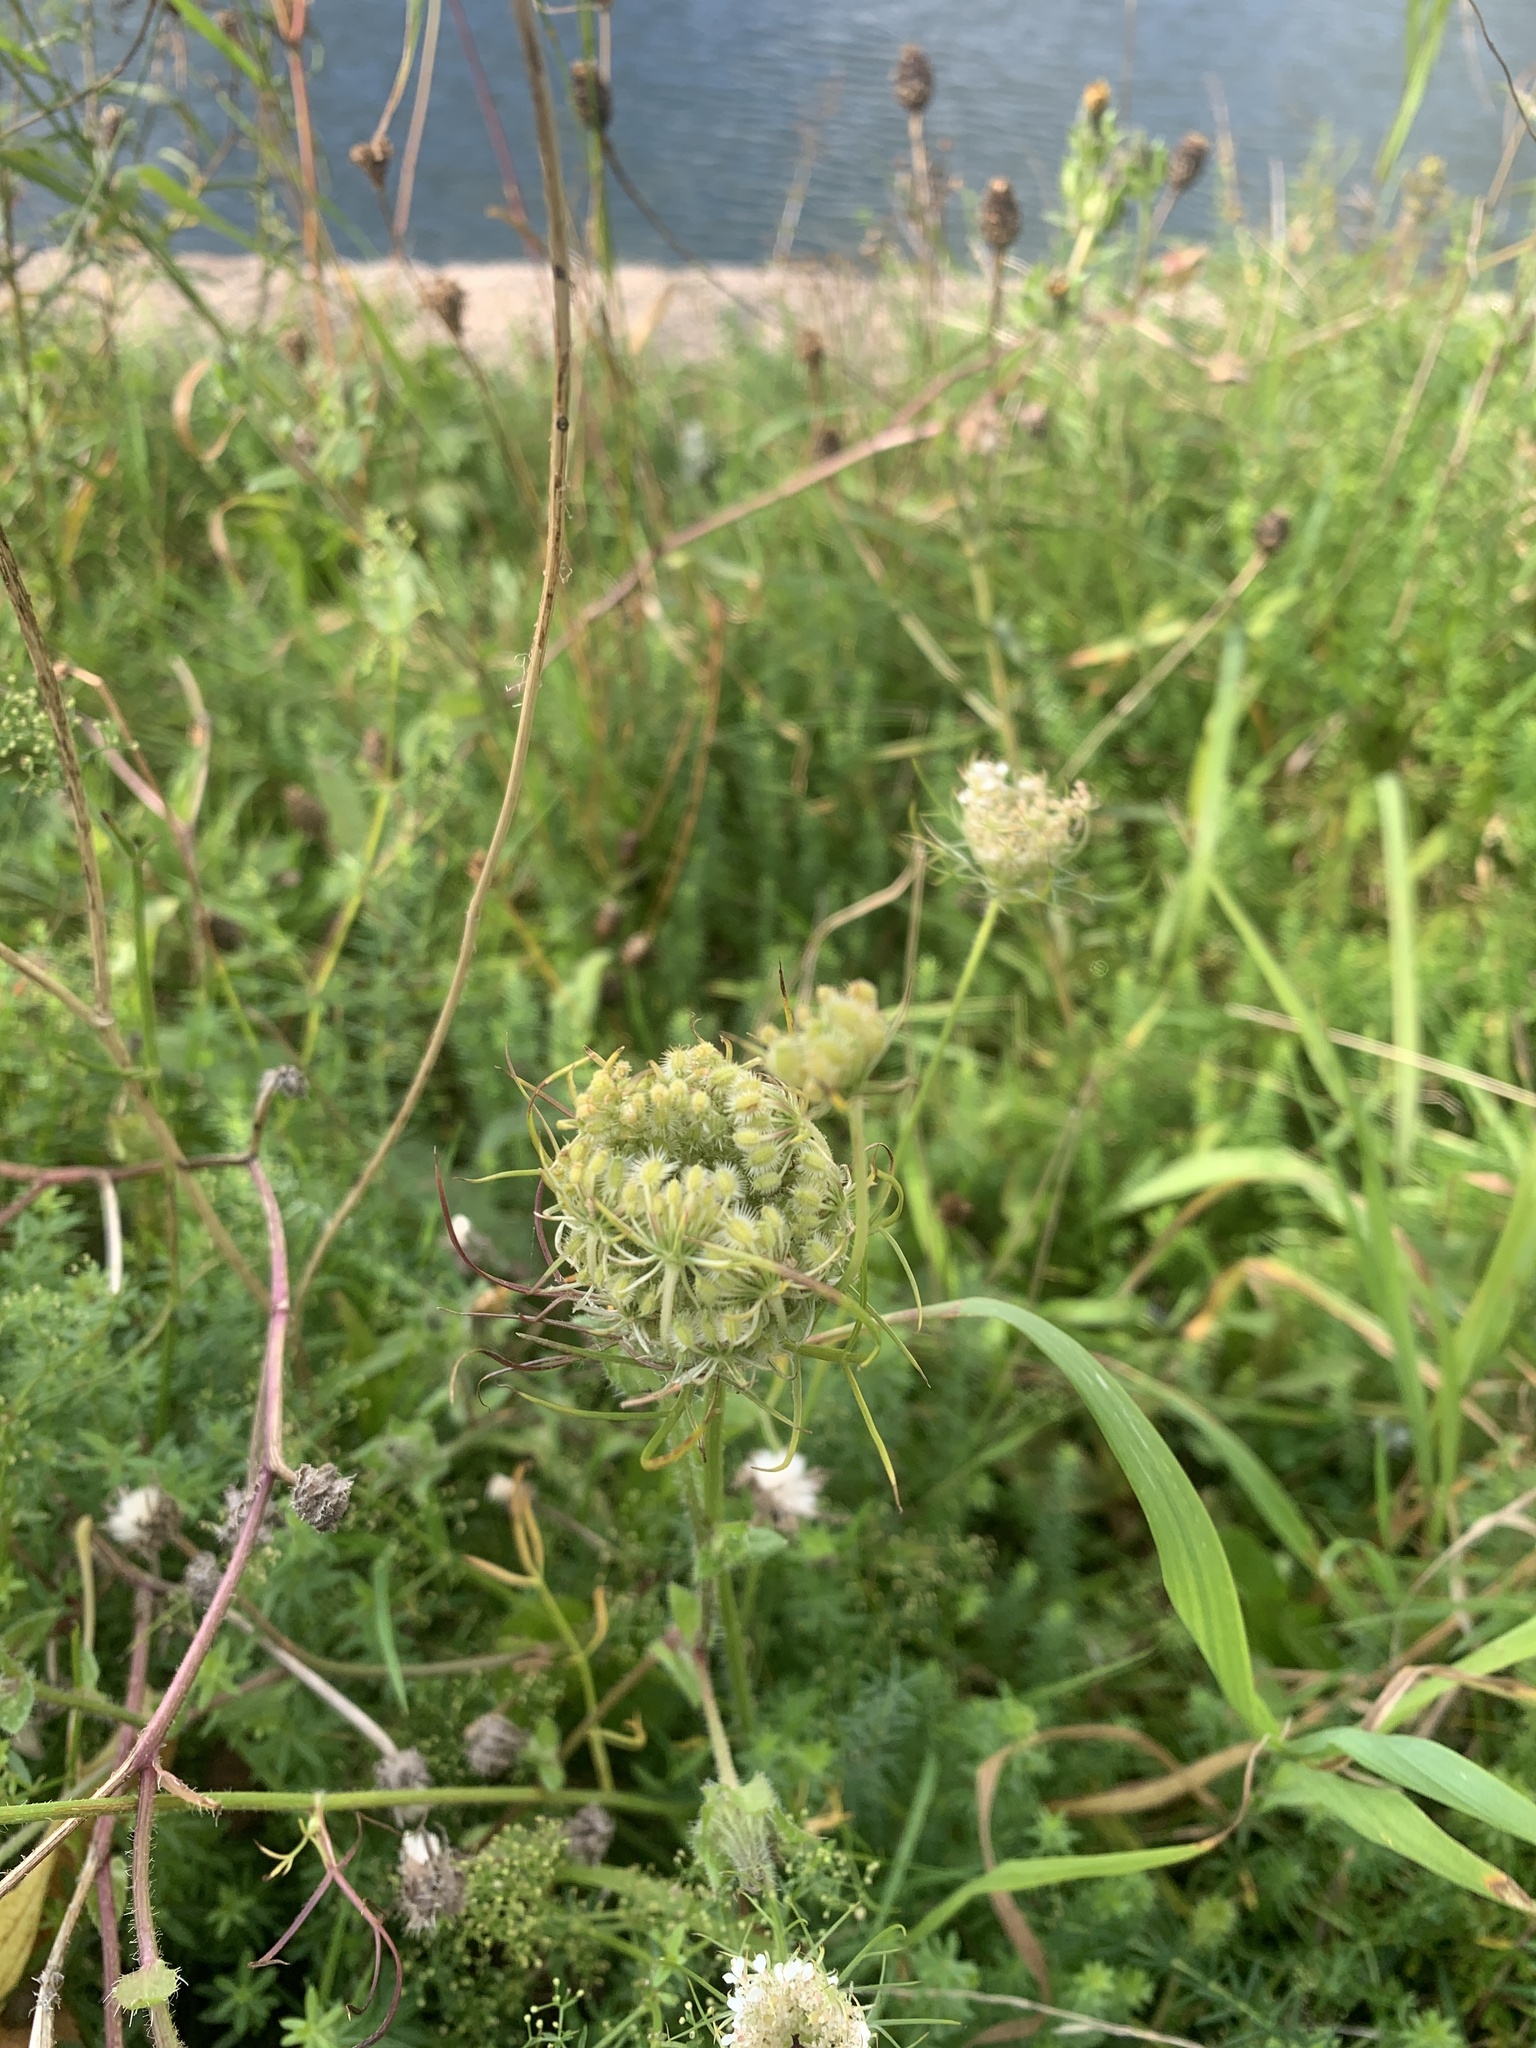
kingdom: Plantae
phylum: Tracheophyta
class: Magnoliopsida
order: Apiales
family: Apiaceae
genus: Daucus
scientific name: Daucus carota
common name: Wild carrot
